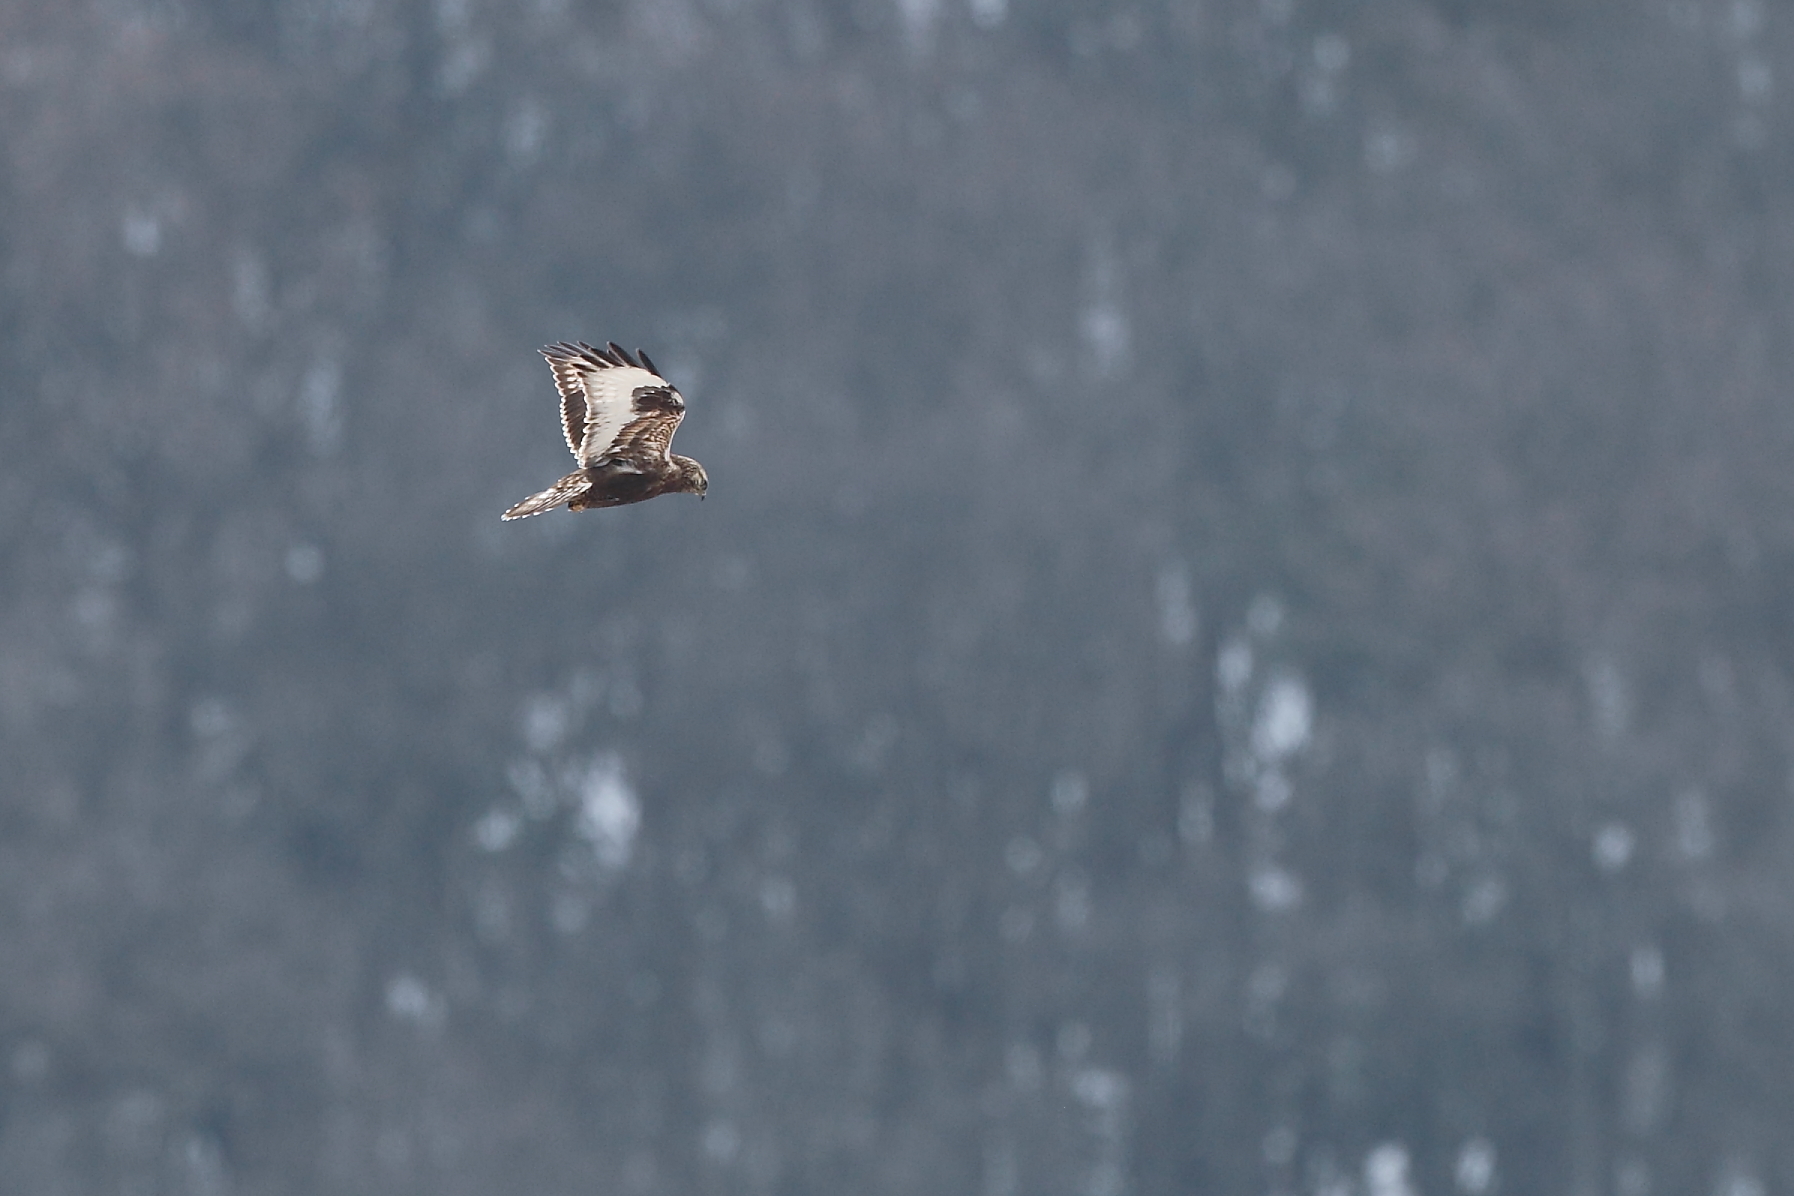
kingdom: Animalia
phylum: Chordata
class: Aves
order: Accipitriformes
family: Accipitridae
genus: Buteo
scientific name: Buteo lagopus
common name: Rough-legged buzzard
